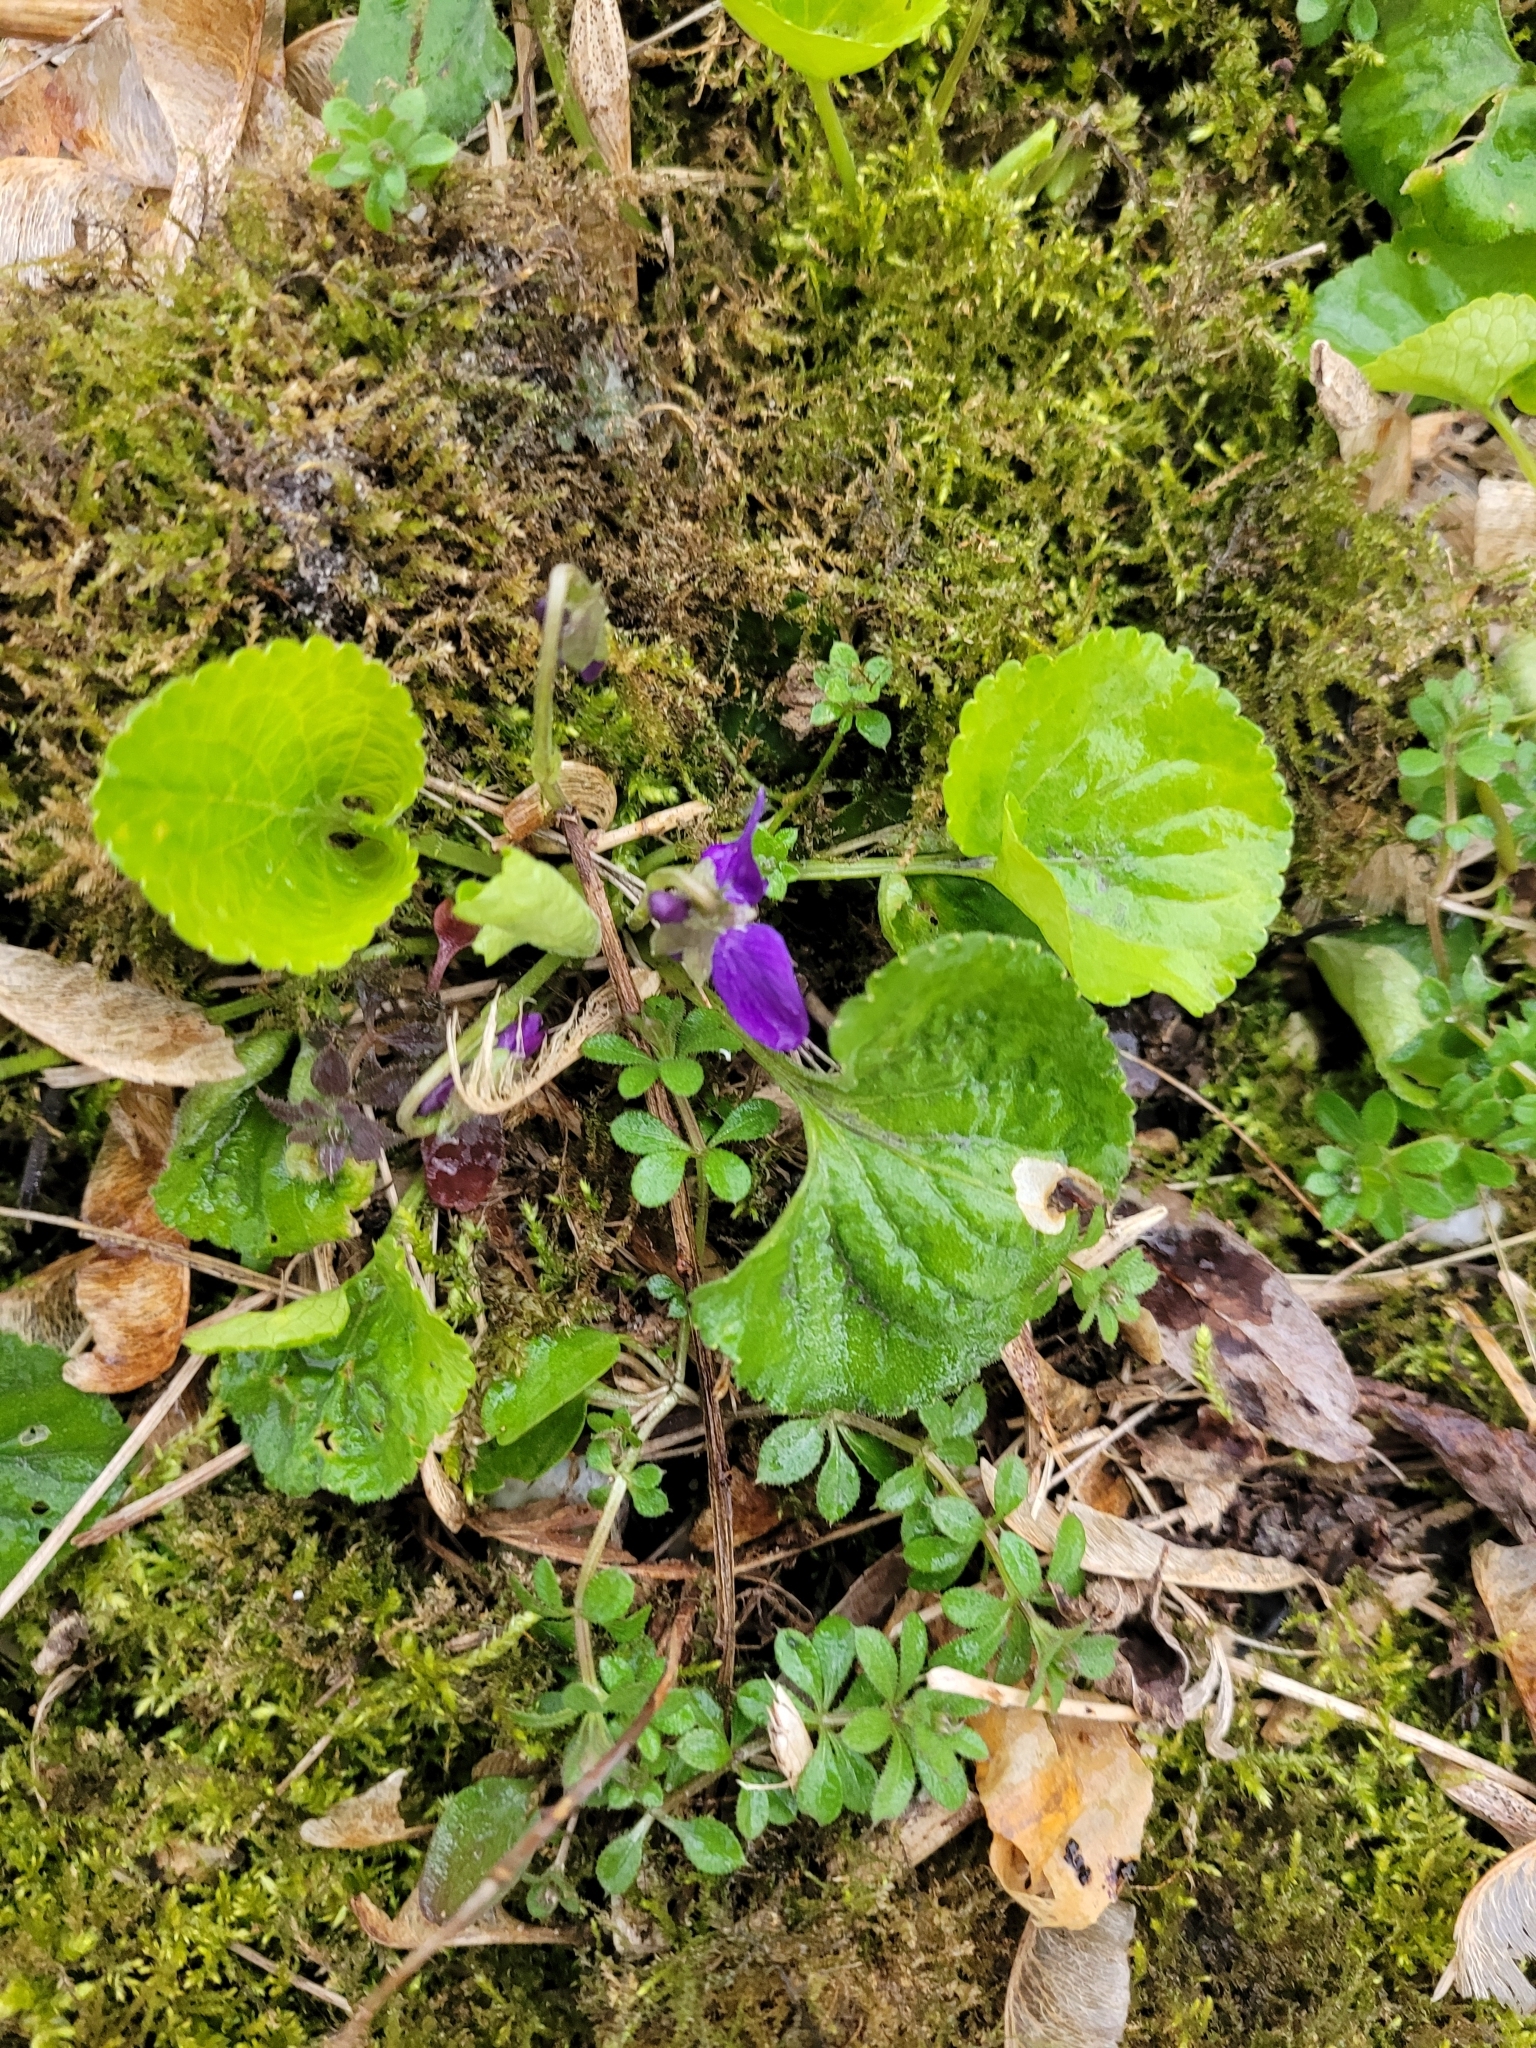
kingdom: Plantae
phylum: Tracheophyta
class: Magnoliopsida
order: Malpighiales
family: Violaceae
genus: Viola
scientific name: Viola odorata
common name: Sweet violet
